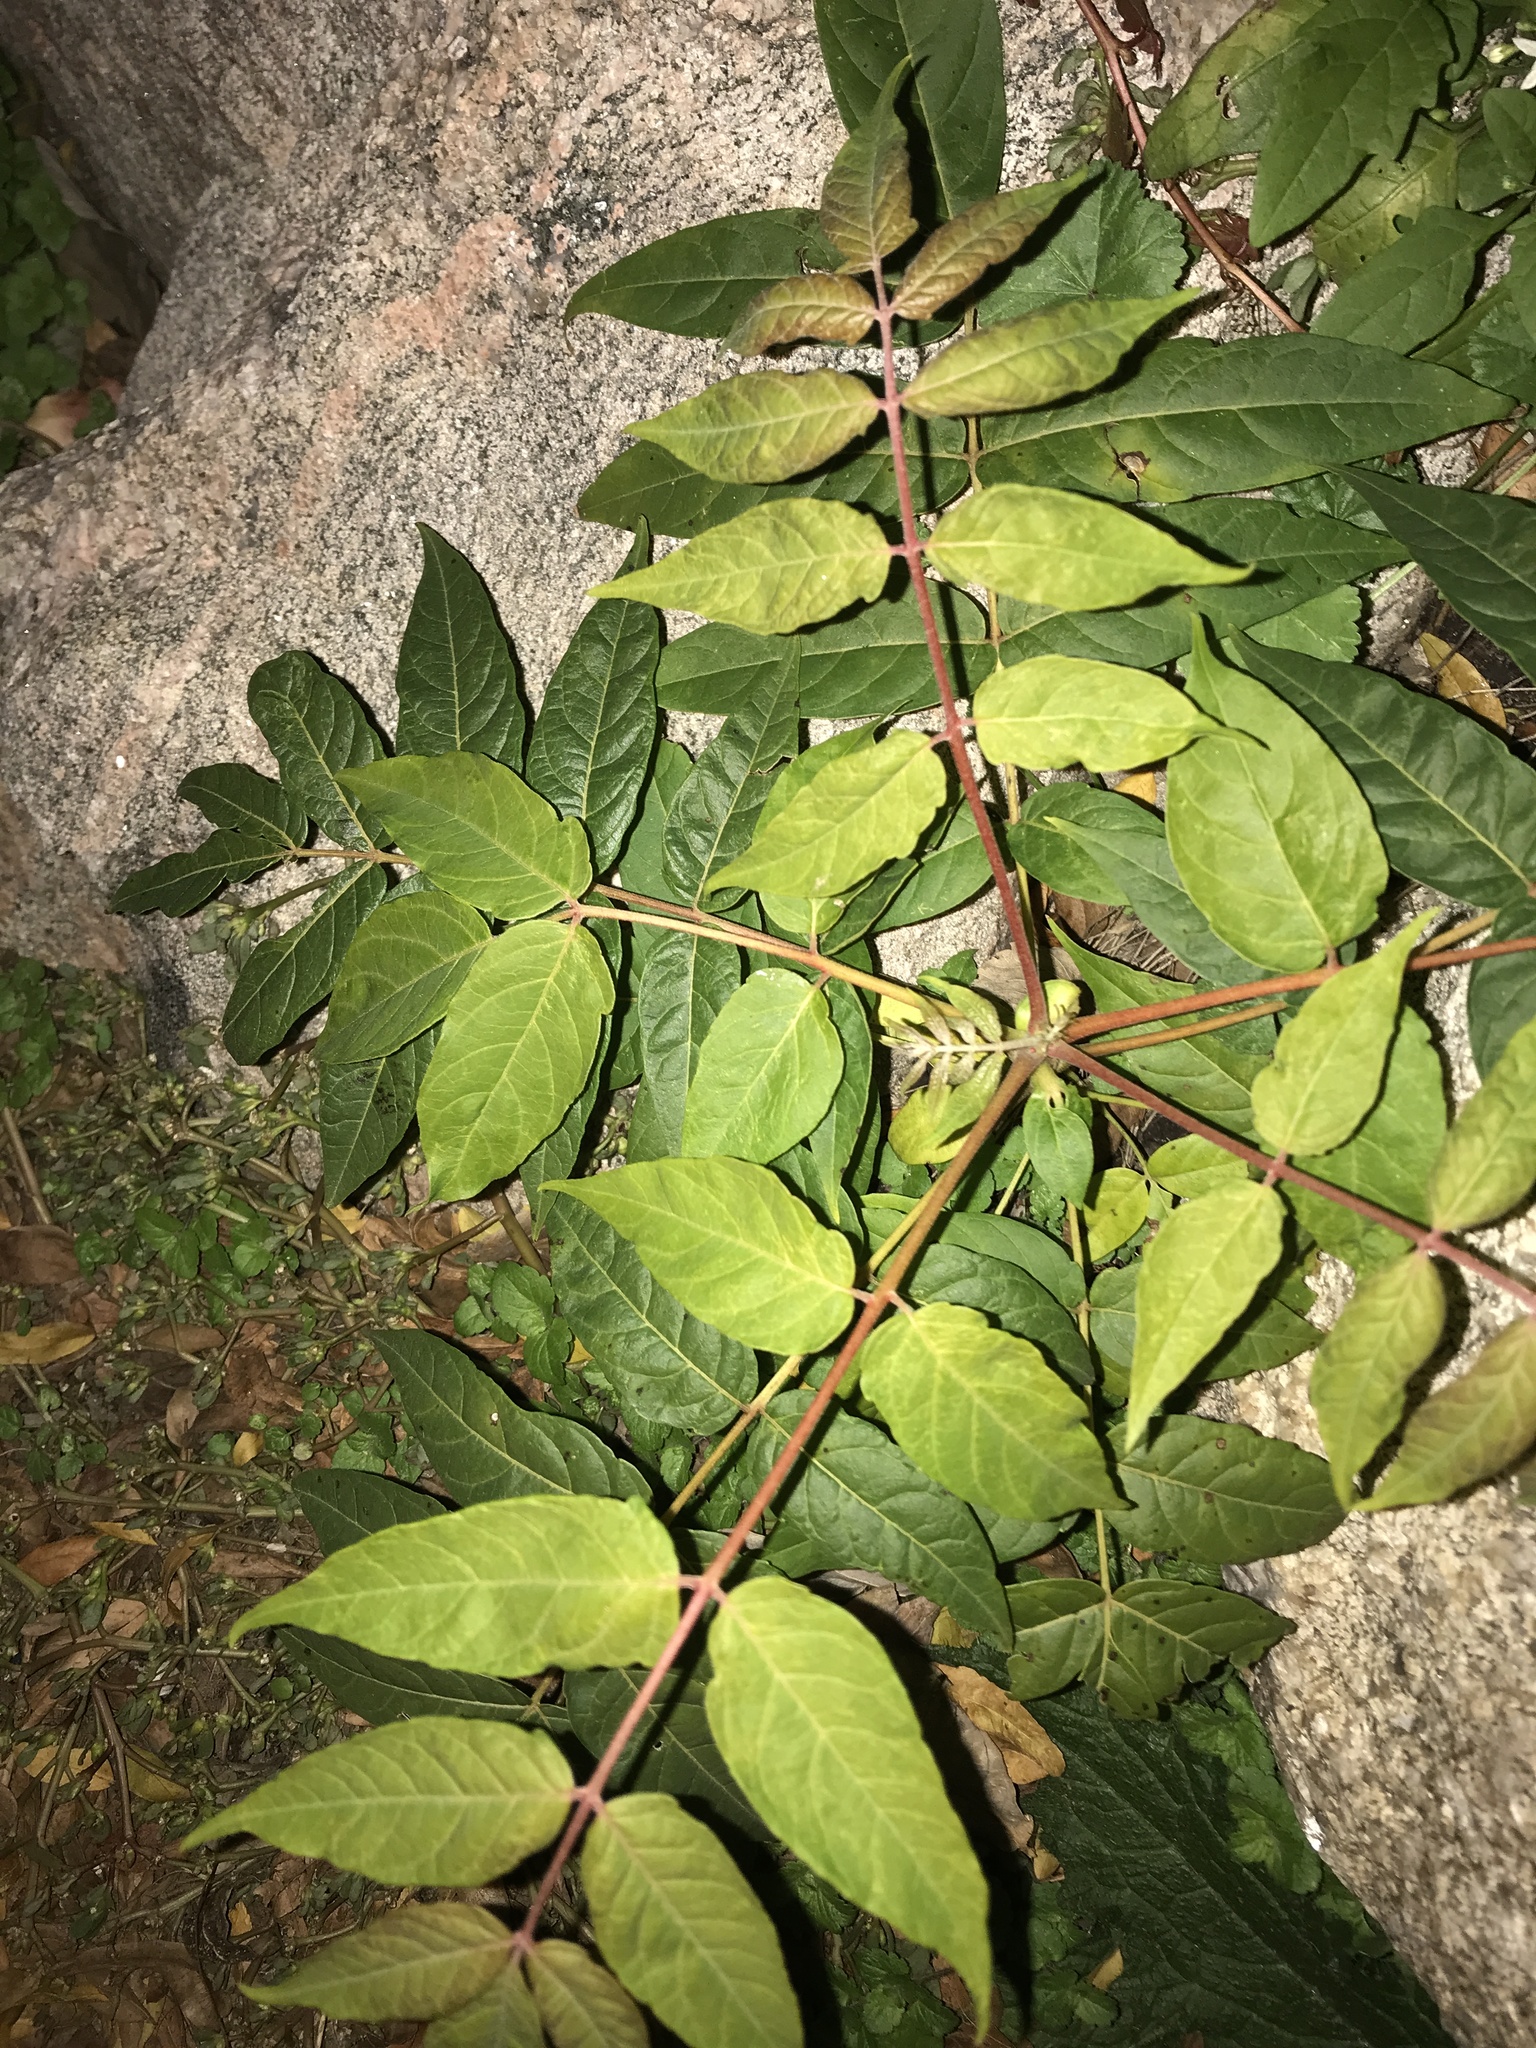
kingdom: Plantae
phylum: Tracheophyta
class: Magnoliopsida
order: Sapindales
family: Simaroubaceae
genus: Ailanthus
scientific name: Ailanthus altissima
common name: Tree-of-heaven
